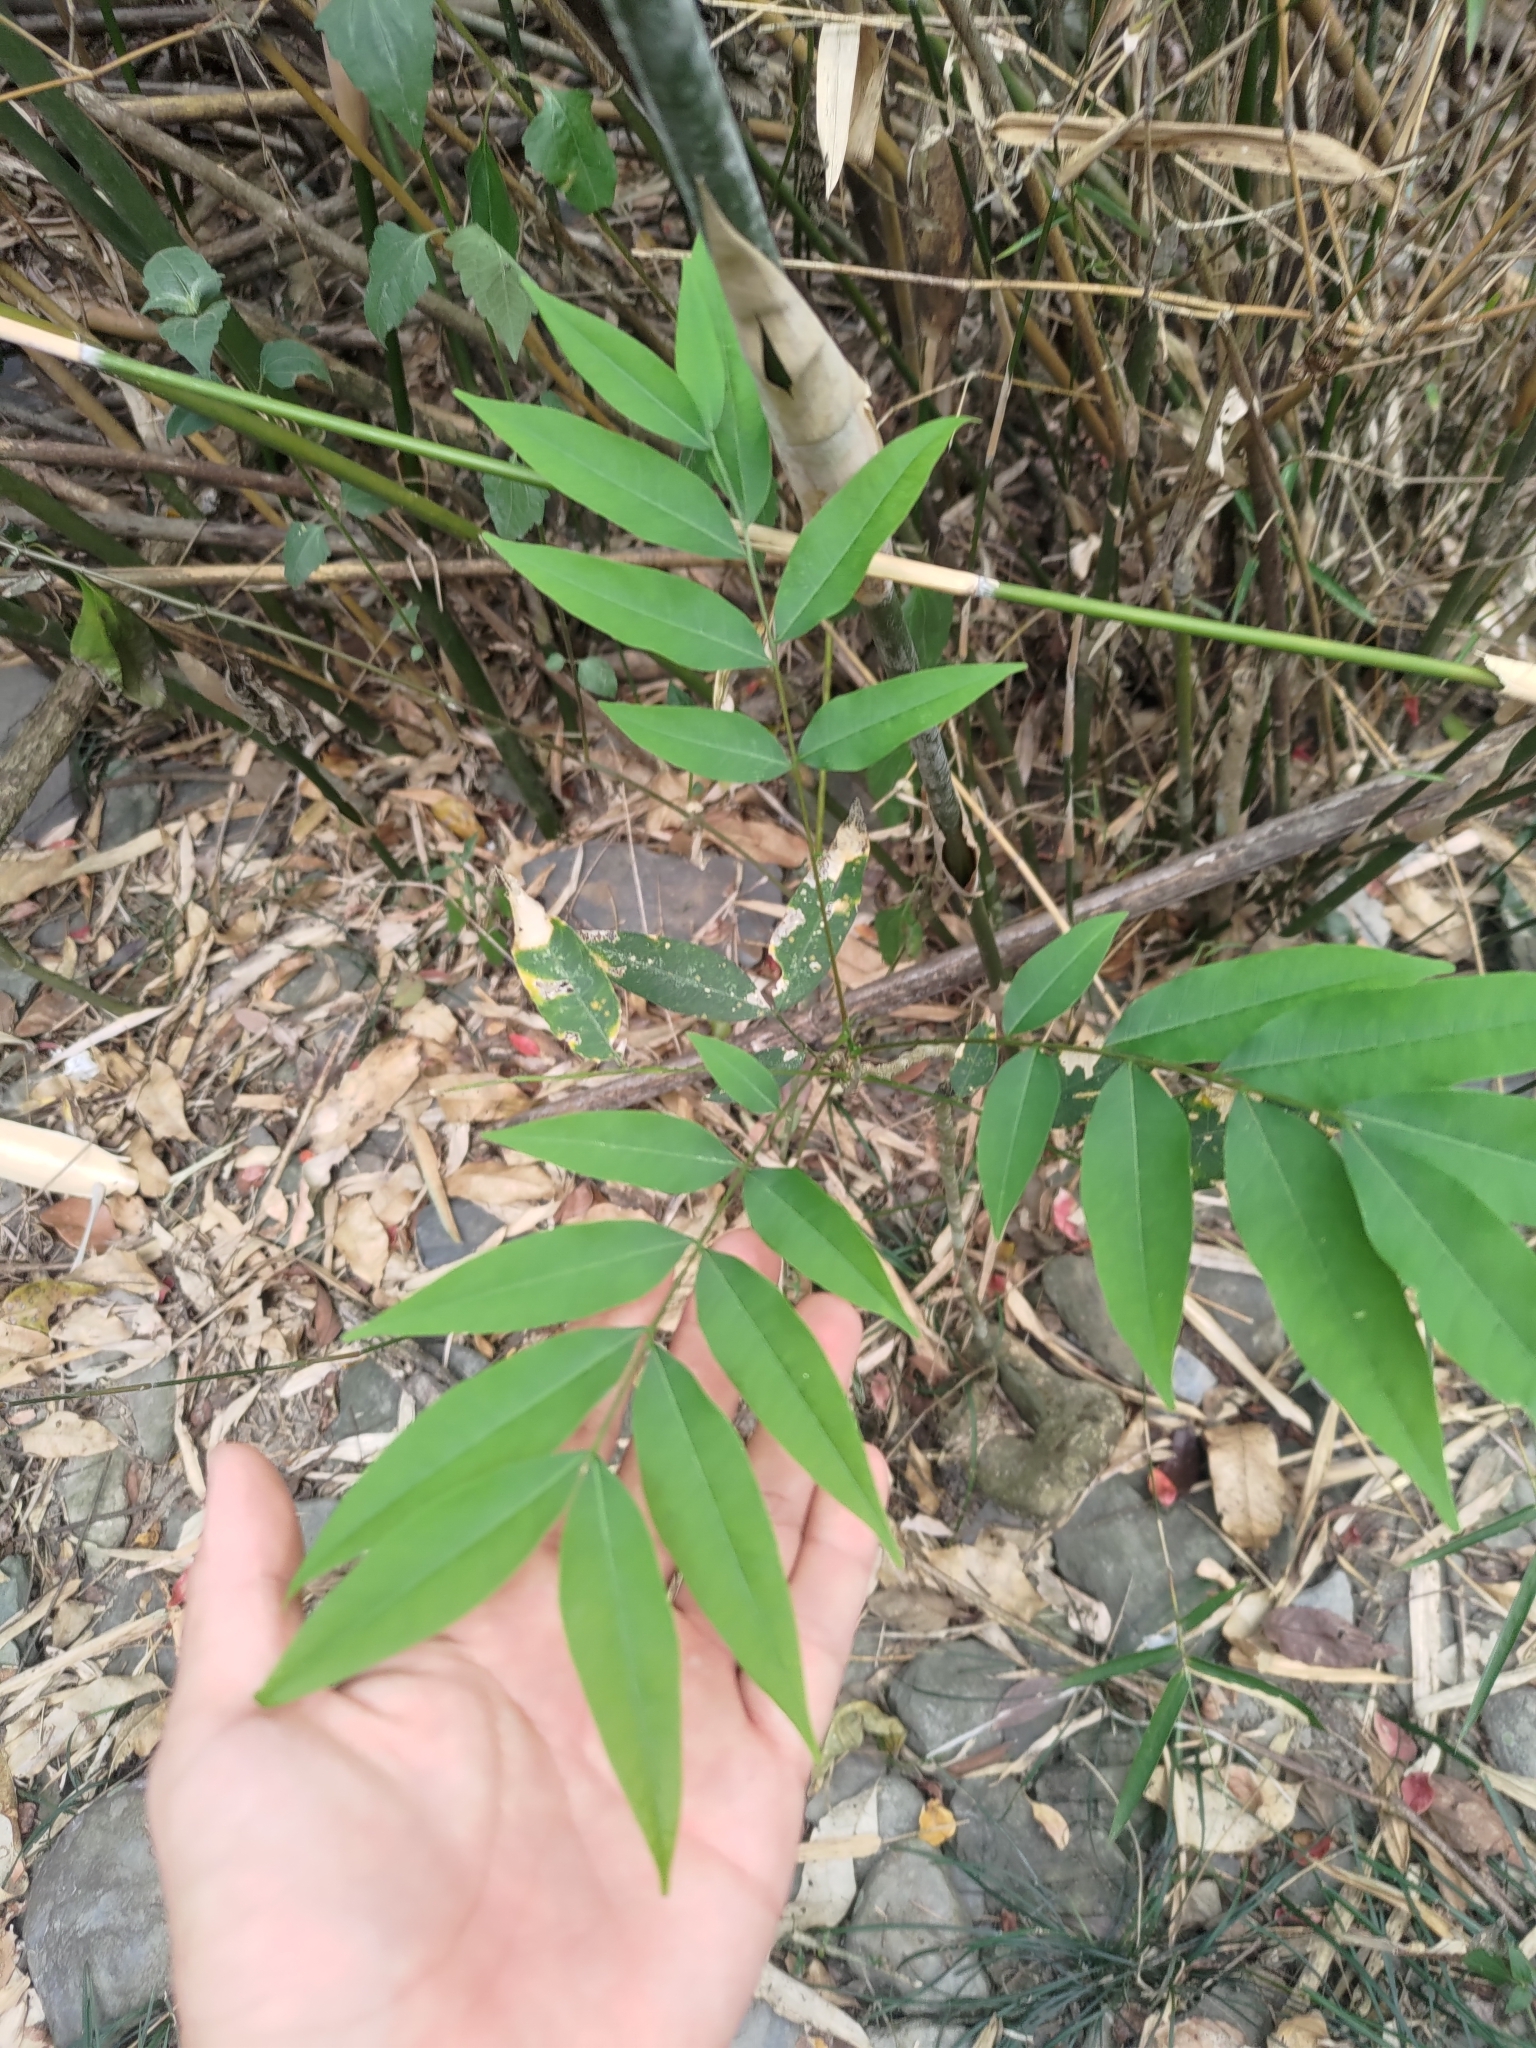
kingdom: Plantae
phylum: Tracheophyta
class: Magnoliopsida
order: Sapindales
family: Sapindaceae
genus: Sapindus
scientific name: Sapindus mukorossi
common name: Chinese soapberry
